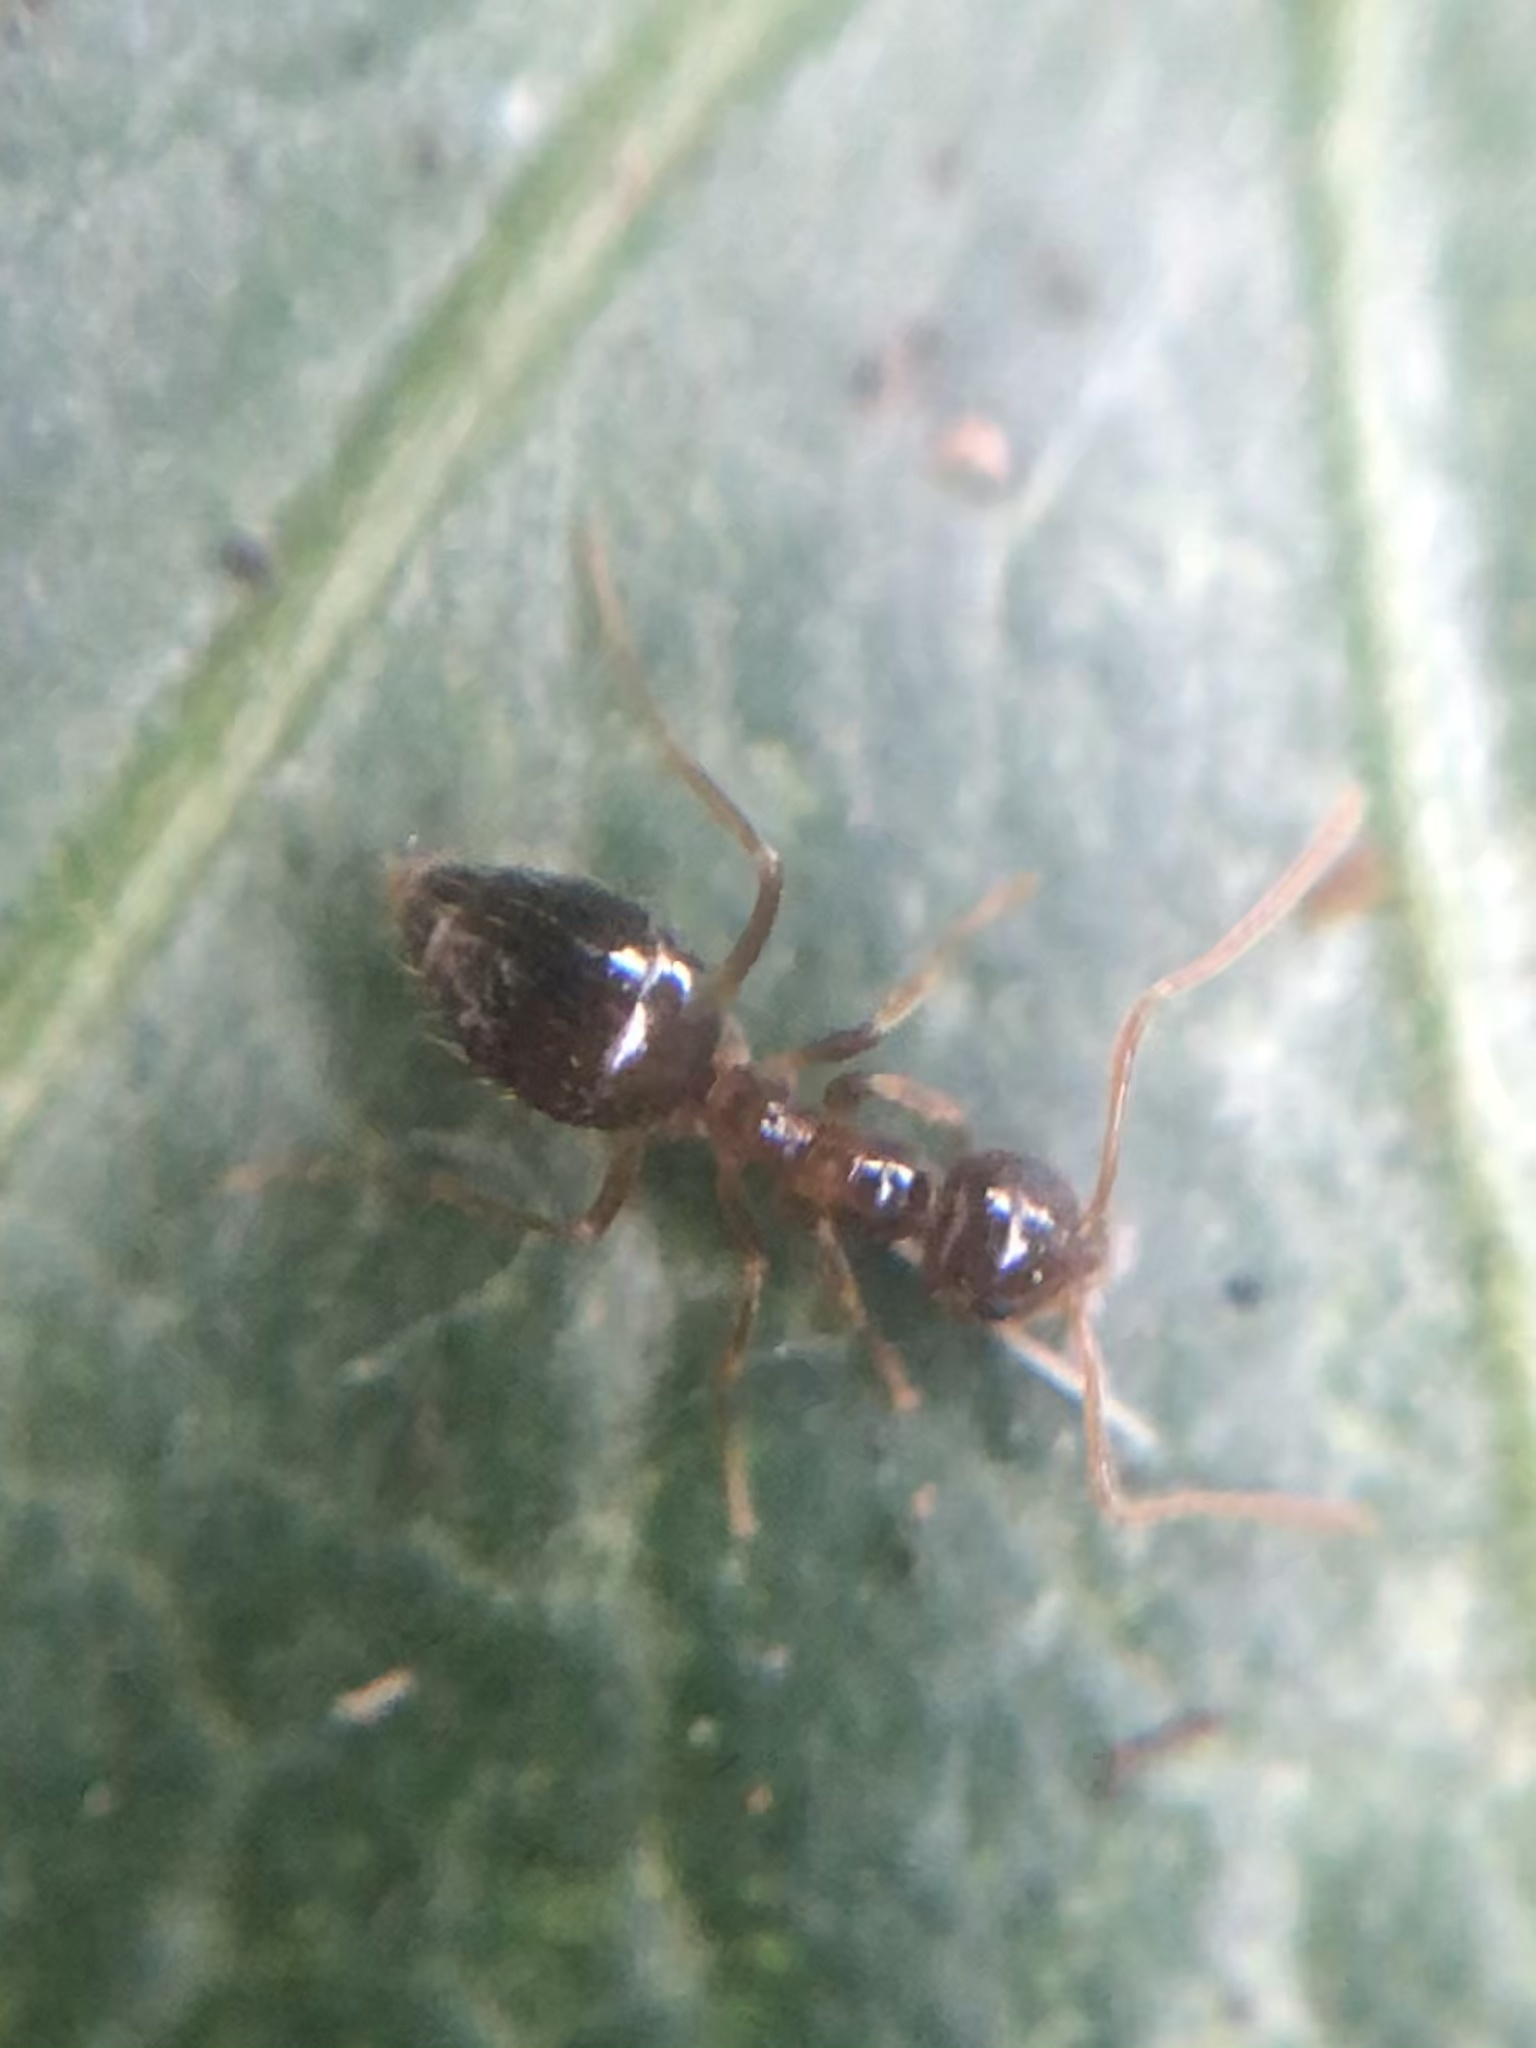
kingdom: Animalia
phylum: Arthropoda
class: Insecta
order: Hymenoptera
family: Formicidae
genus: Prenolepis
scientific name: Prenolepis imparis
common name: Small honey ant
